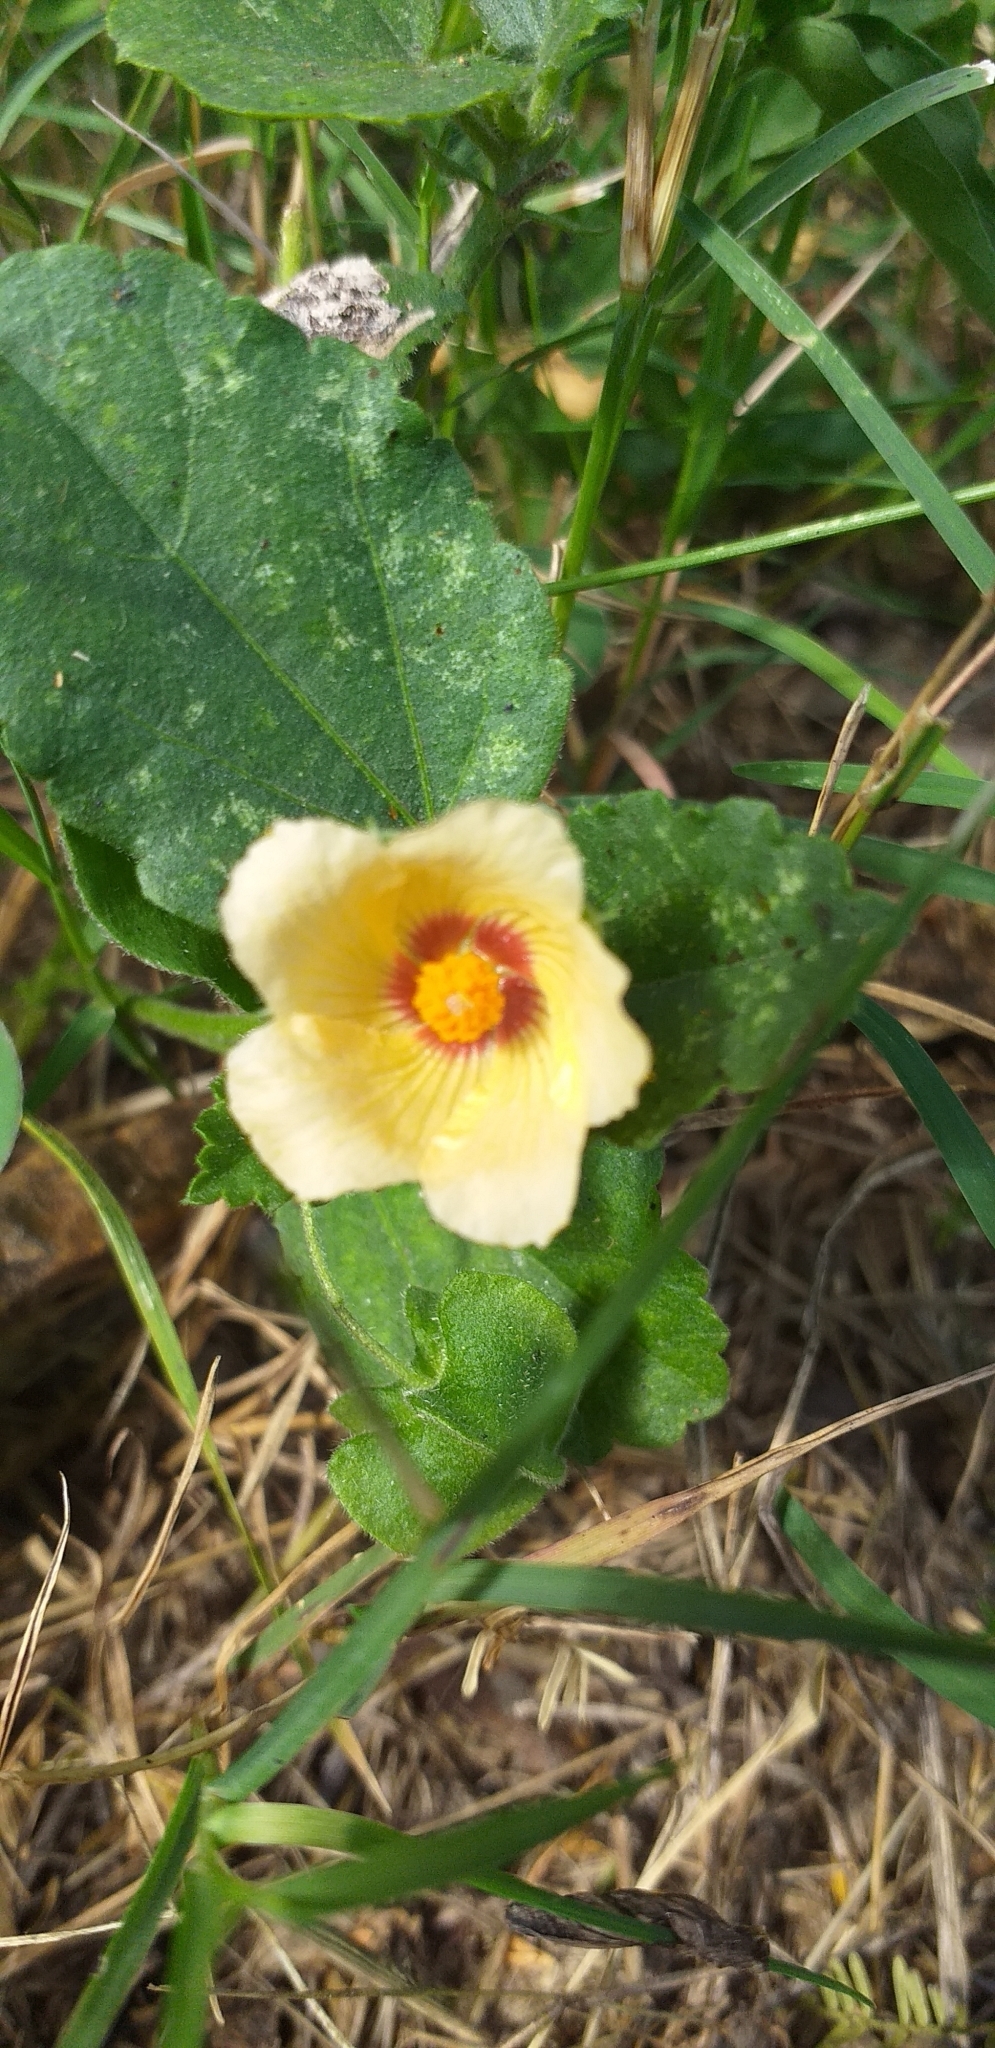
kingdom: Plantae
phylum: Tracheophyta
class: Magnoliopsida
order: Malvales
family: Malvaceae
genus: Sida
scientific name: Sida rhombifolia
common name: Queensland-hemp
